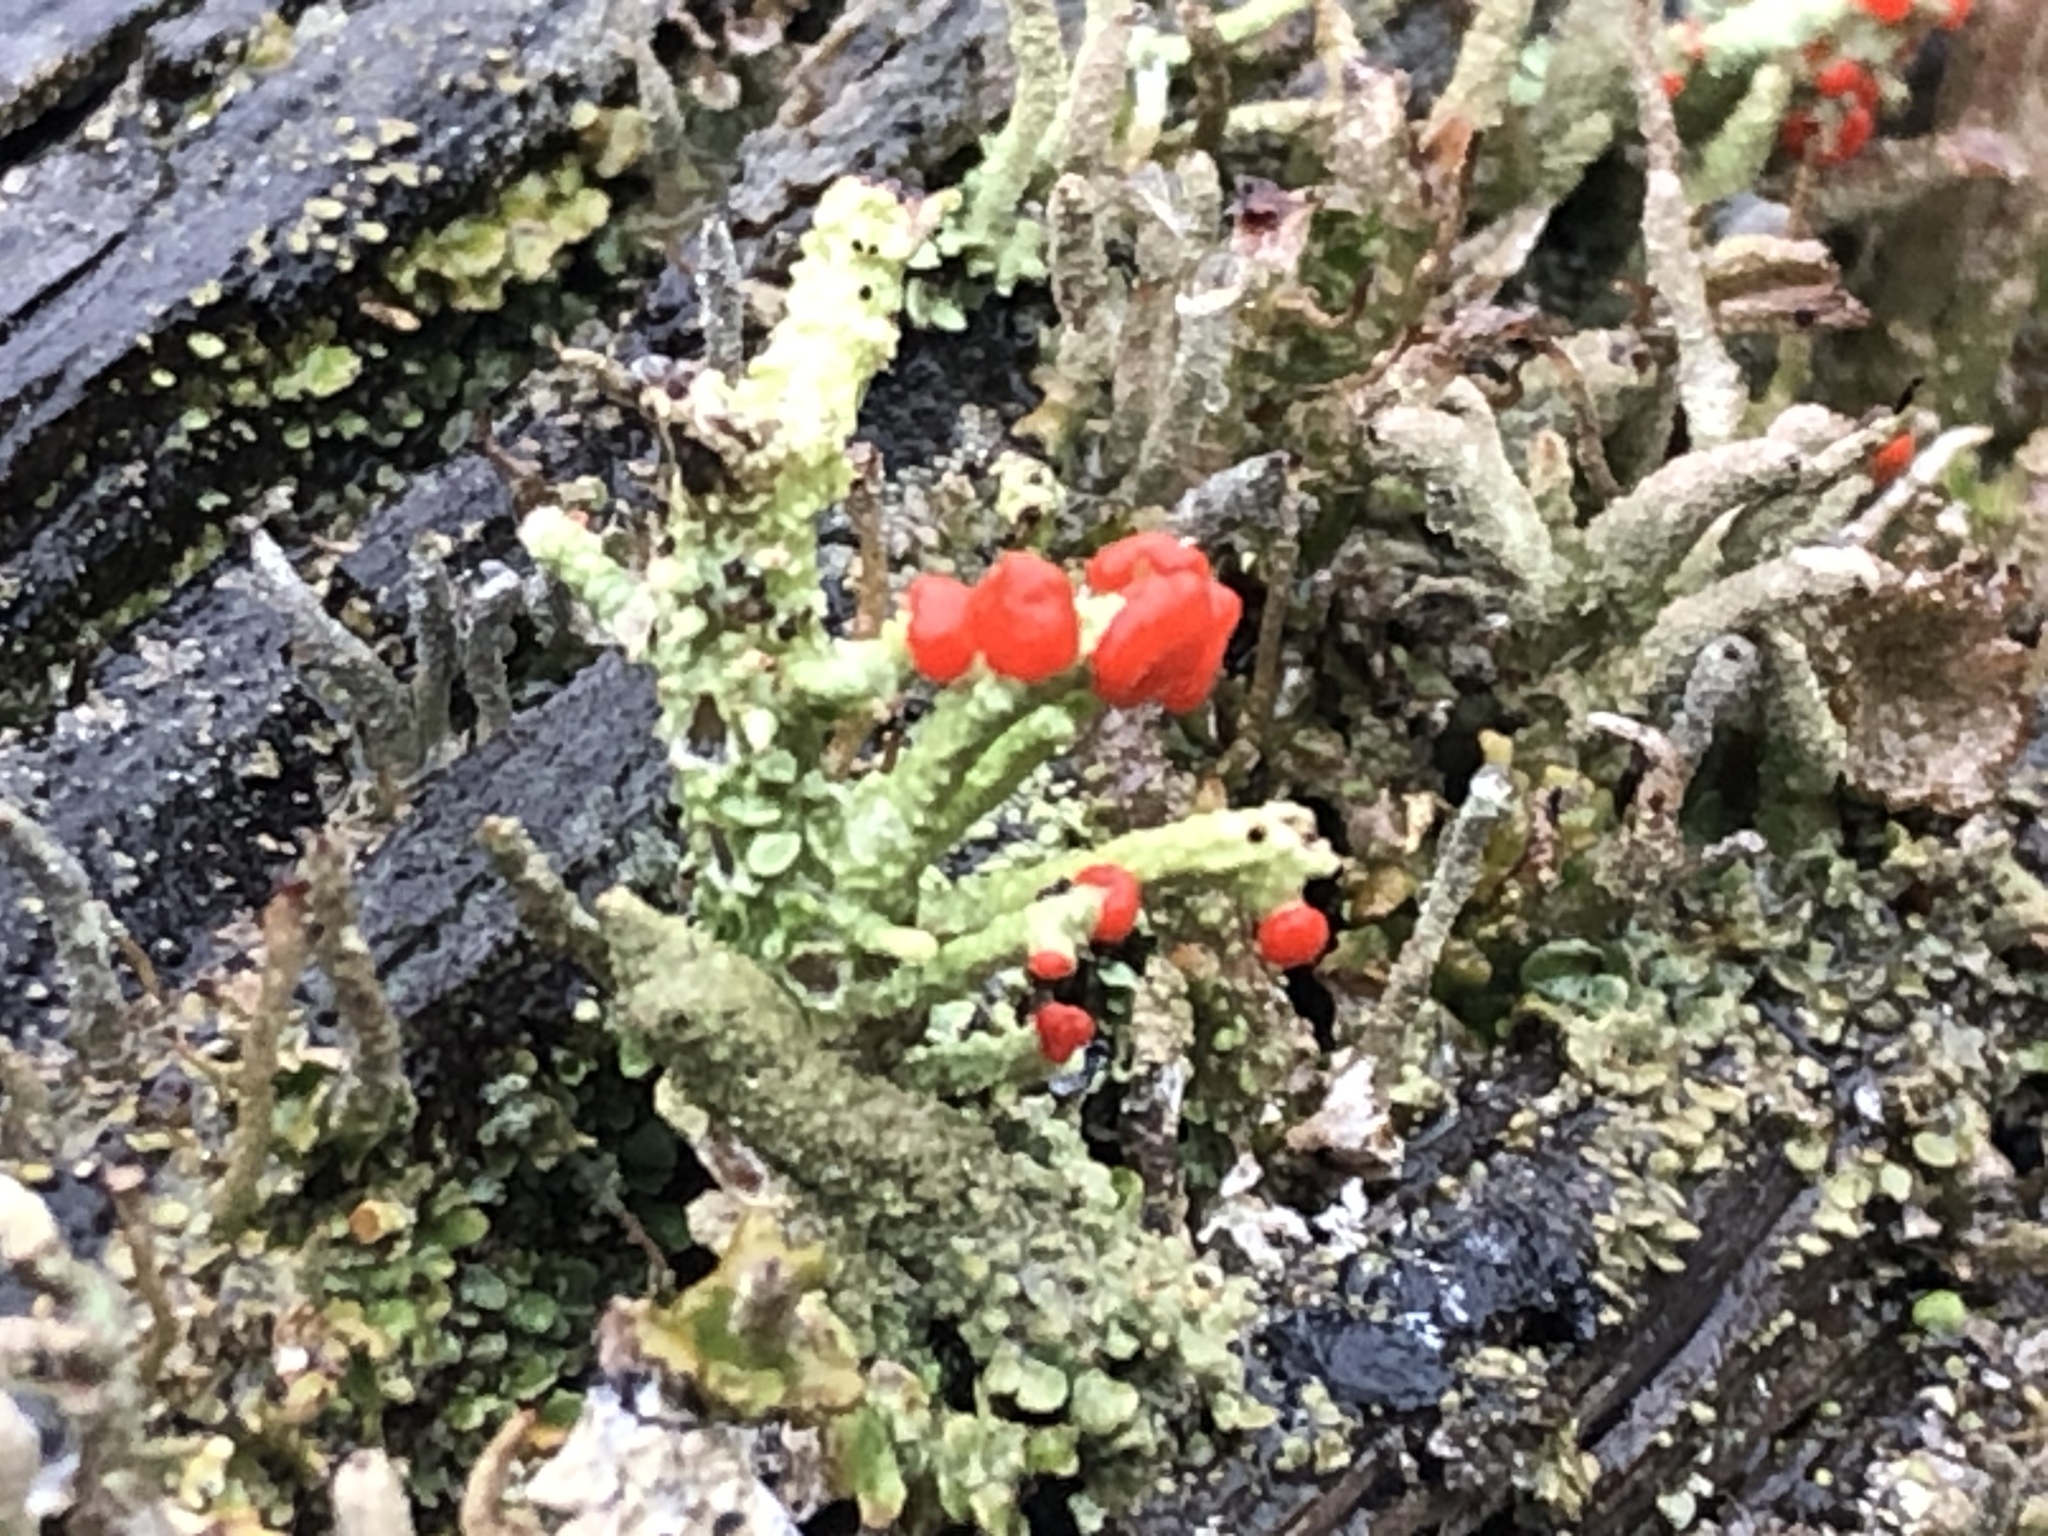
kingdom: Fungi
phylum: Ascomycota
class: Lecanoromycetes
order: Lecanorales
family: Cladoniaceae
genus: Cladonia
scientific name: Cladonia cristatella
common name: British soldier lichen
